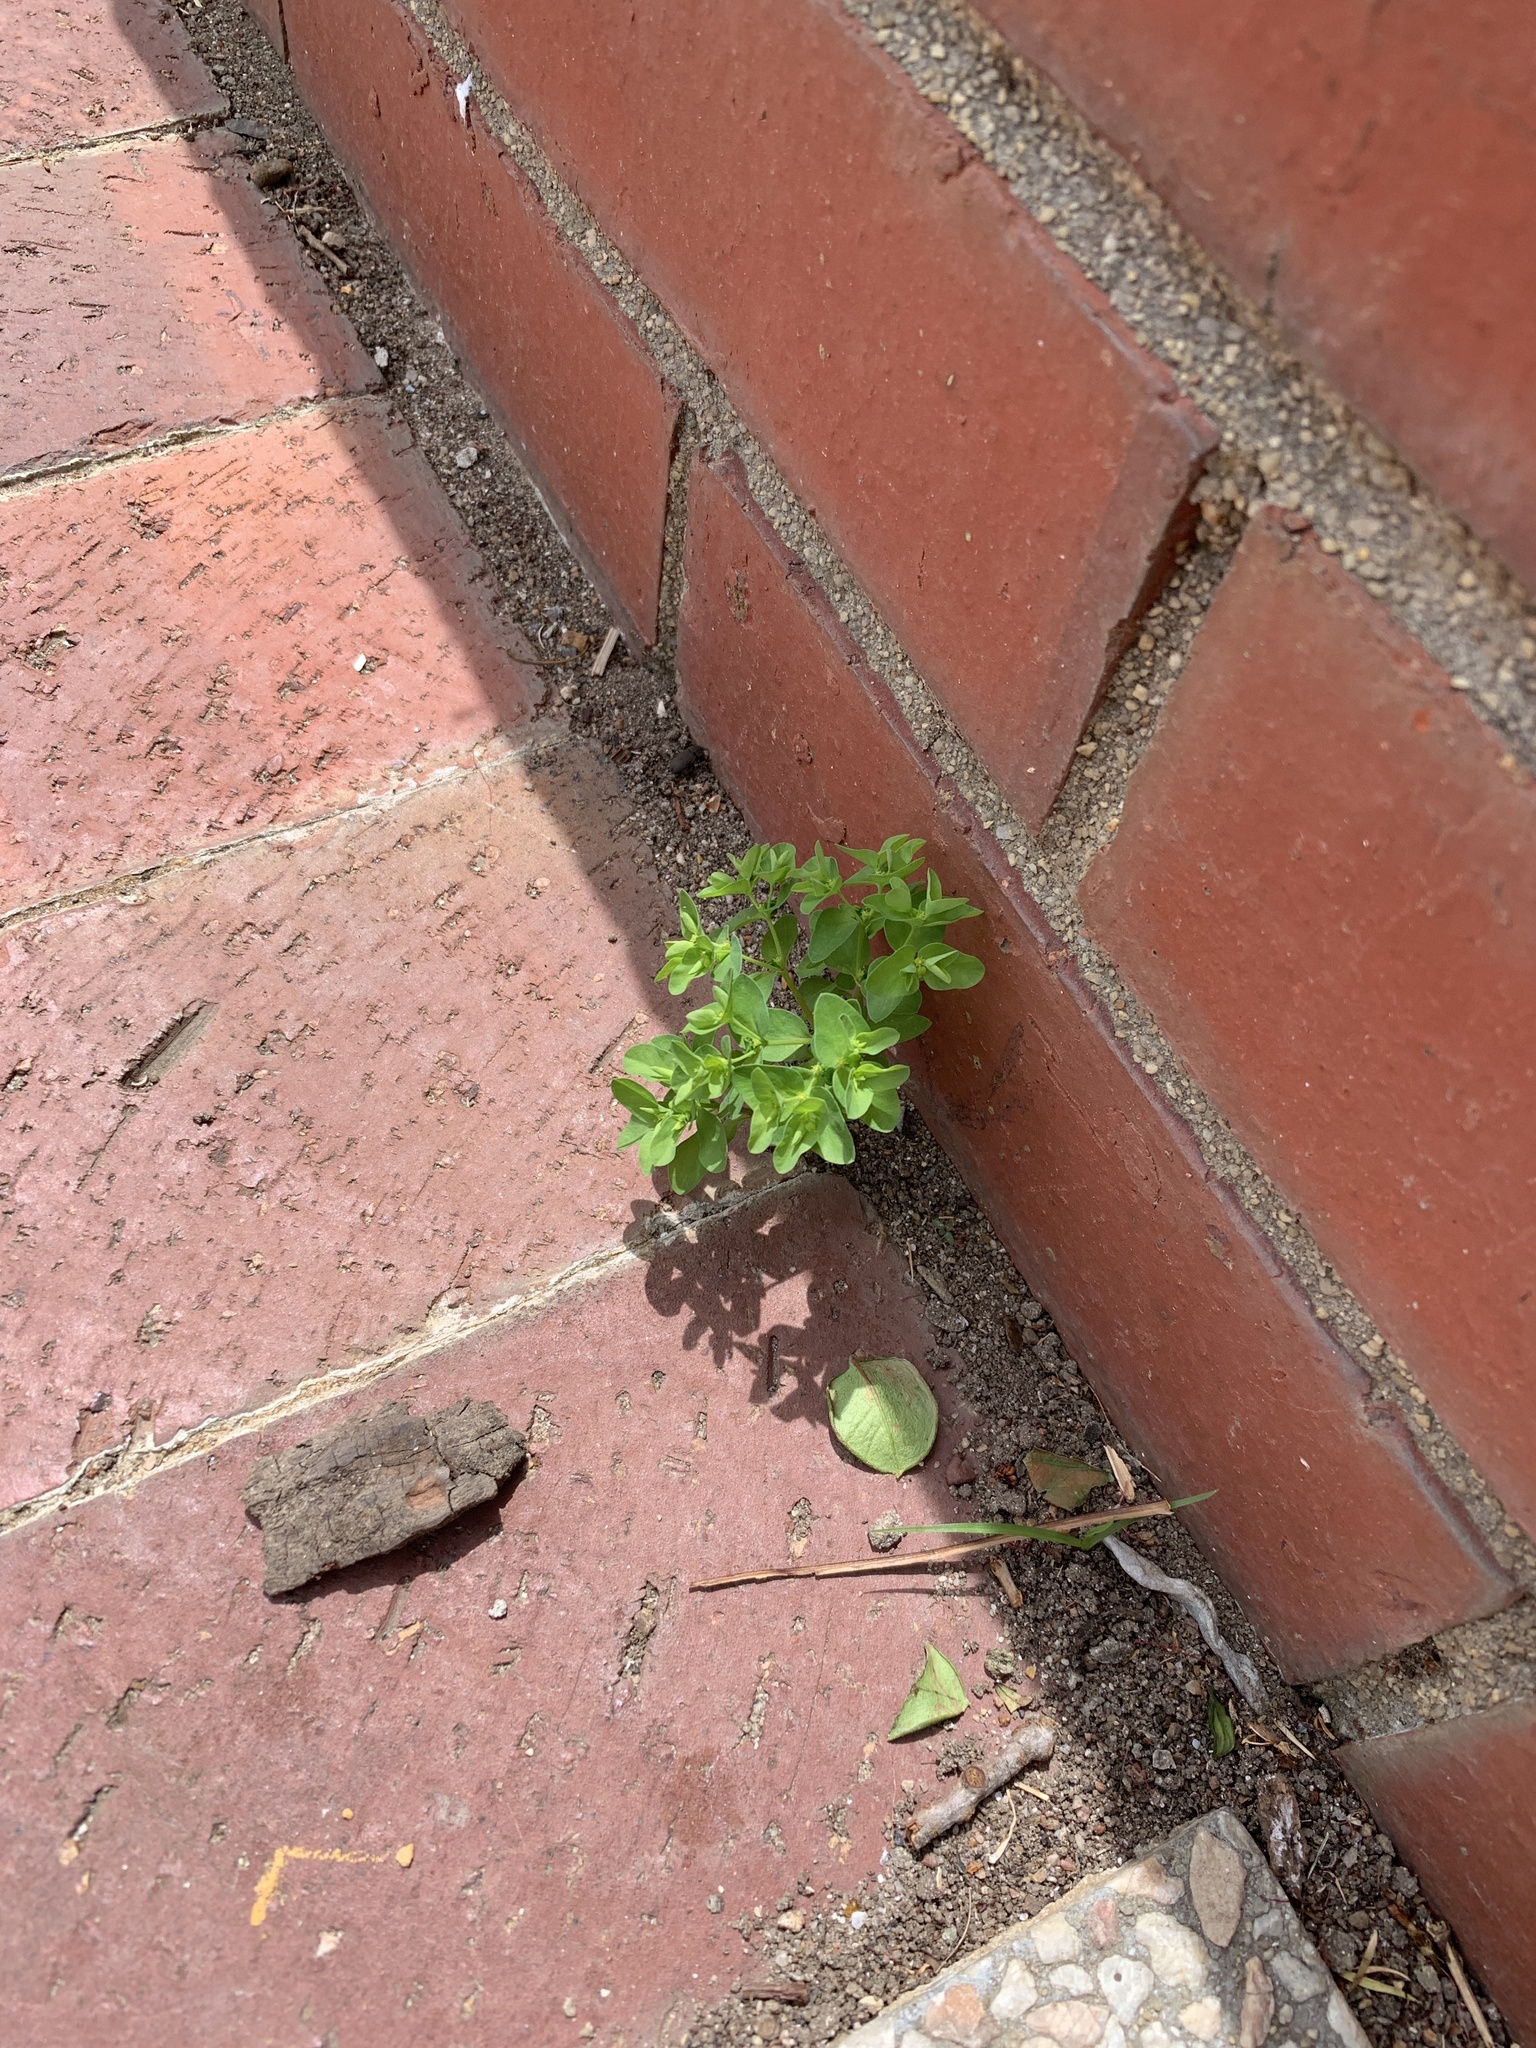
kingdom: Plantae
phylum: Tracheophyta
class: Magnoliopsida
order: Malpighiales
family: Euphorbiaceae
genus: Euphorbia
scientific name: Euphorbia peplus
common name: Petty spurge
